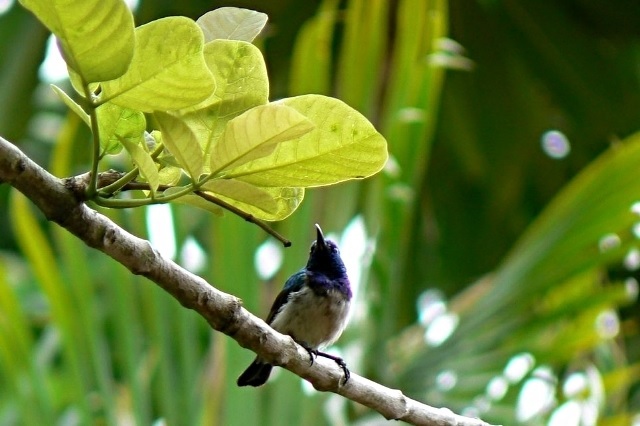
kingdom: Animalia
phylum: Chordata
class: Aves
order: Passeriformes
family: Nectariniidae
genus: Cinnyris
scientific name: Cinnyris talatala
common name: White-bellied sunbird
